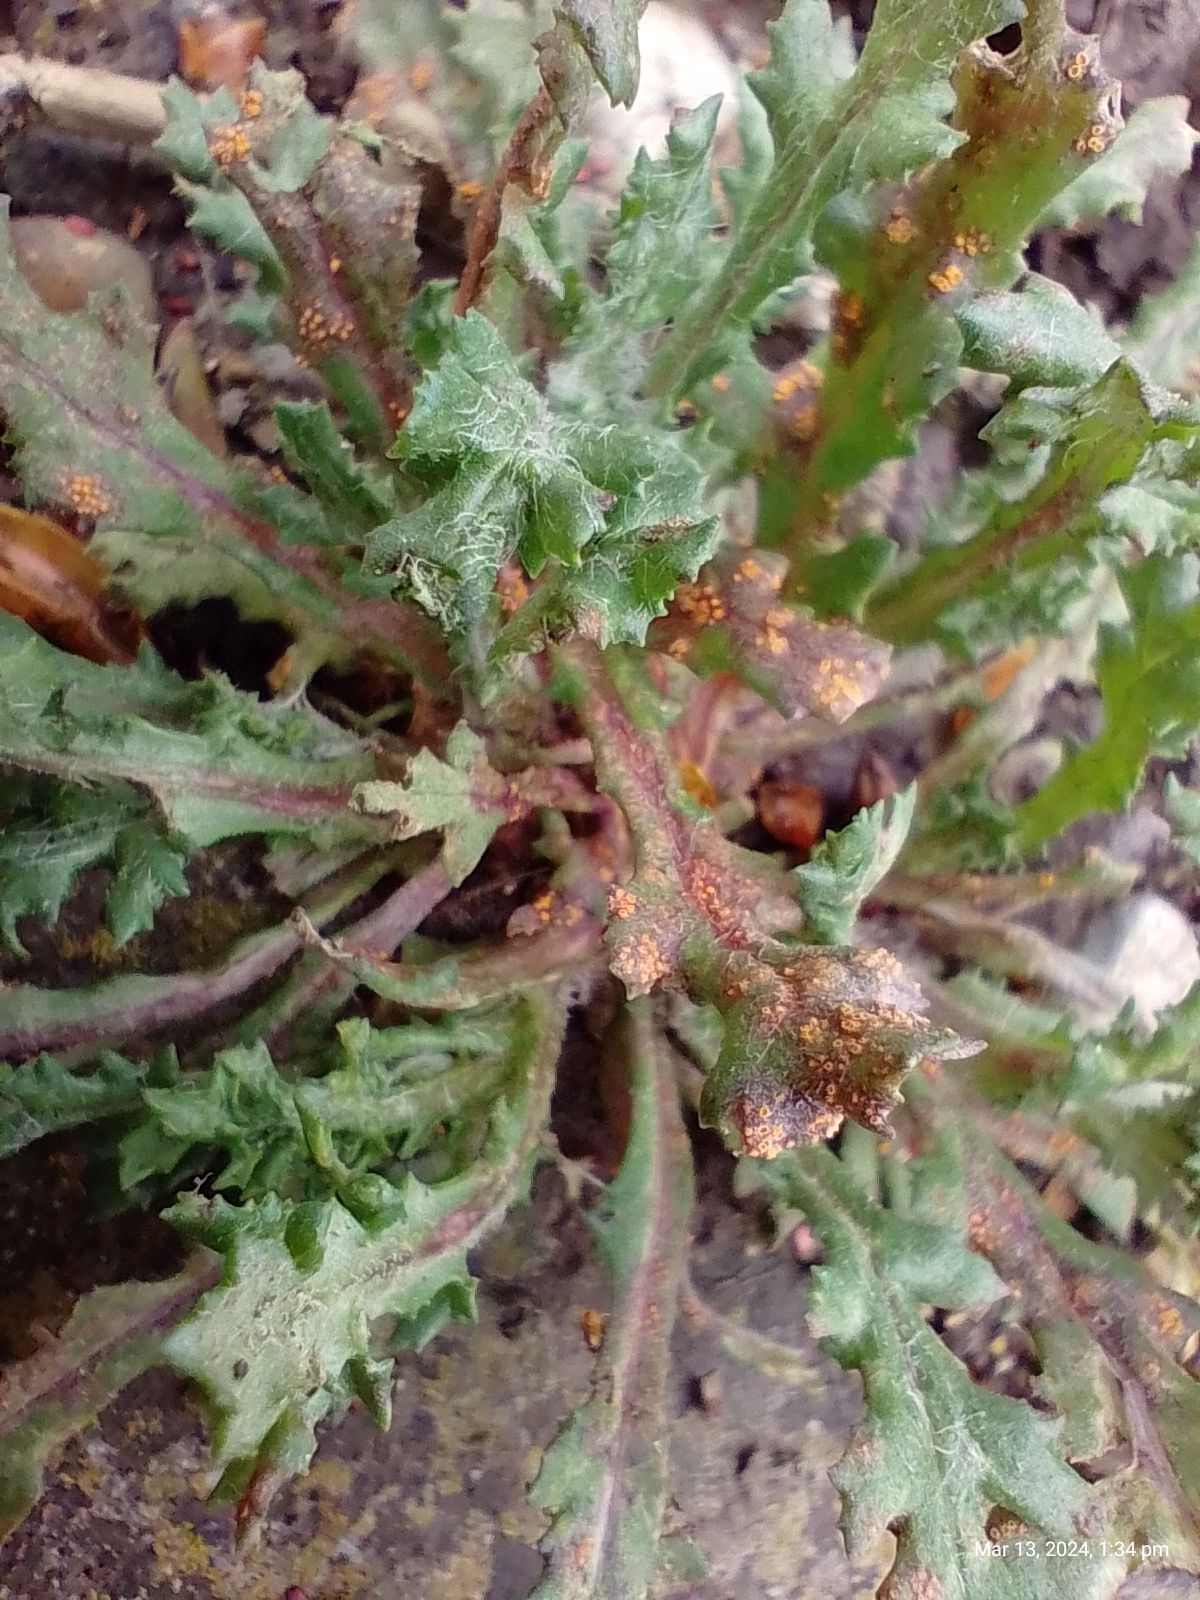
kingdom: Fungi
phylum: Basidiomycota
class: Pucciniomycetes
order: Pucciniales
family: Pucciniaceae
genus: Puccinia
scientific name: Puccinia lagenophorae
